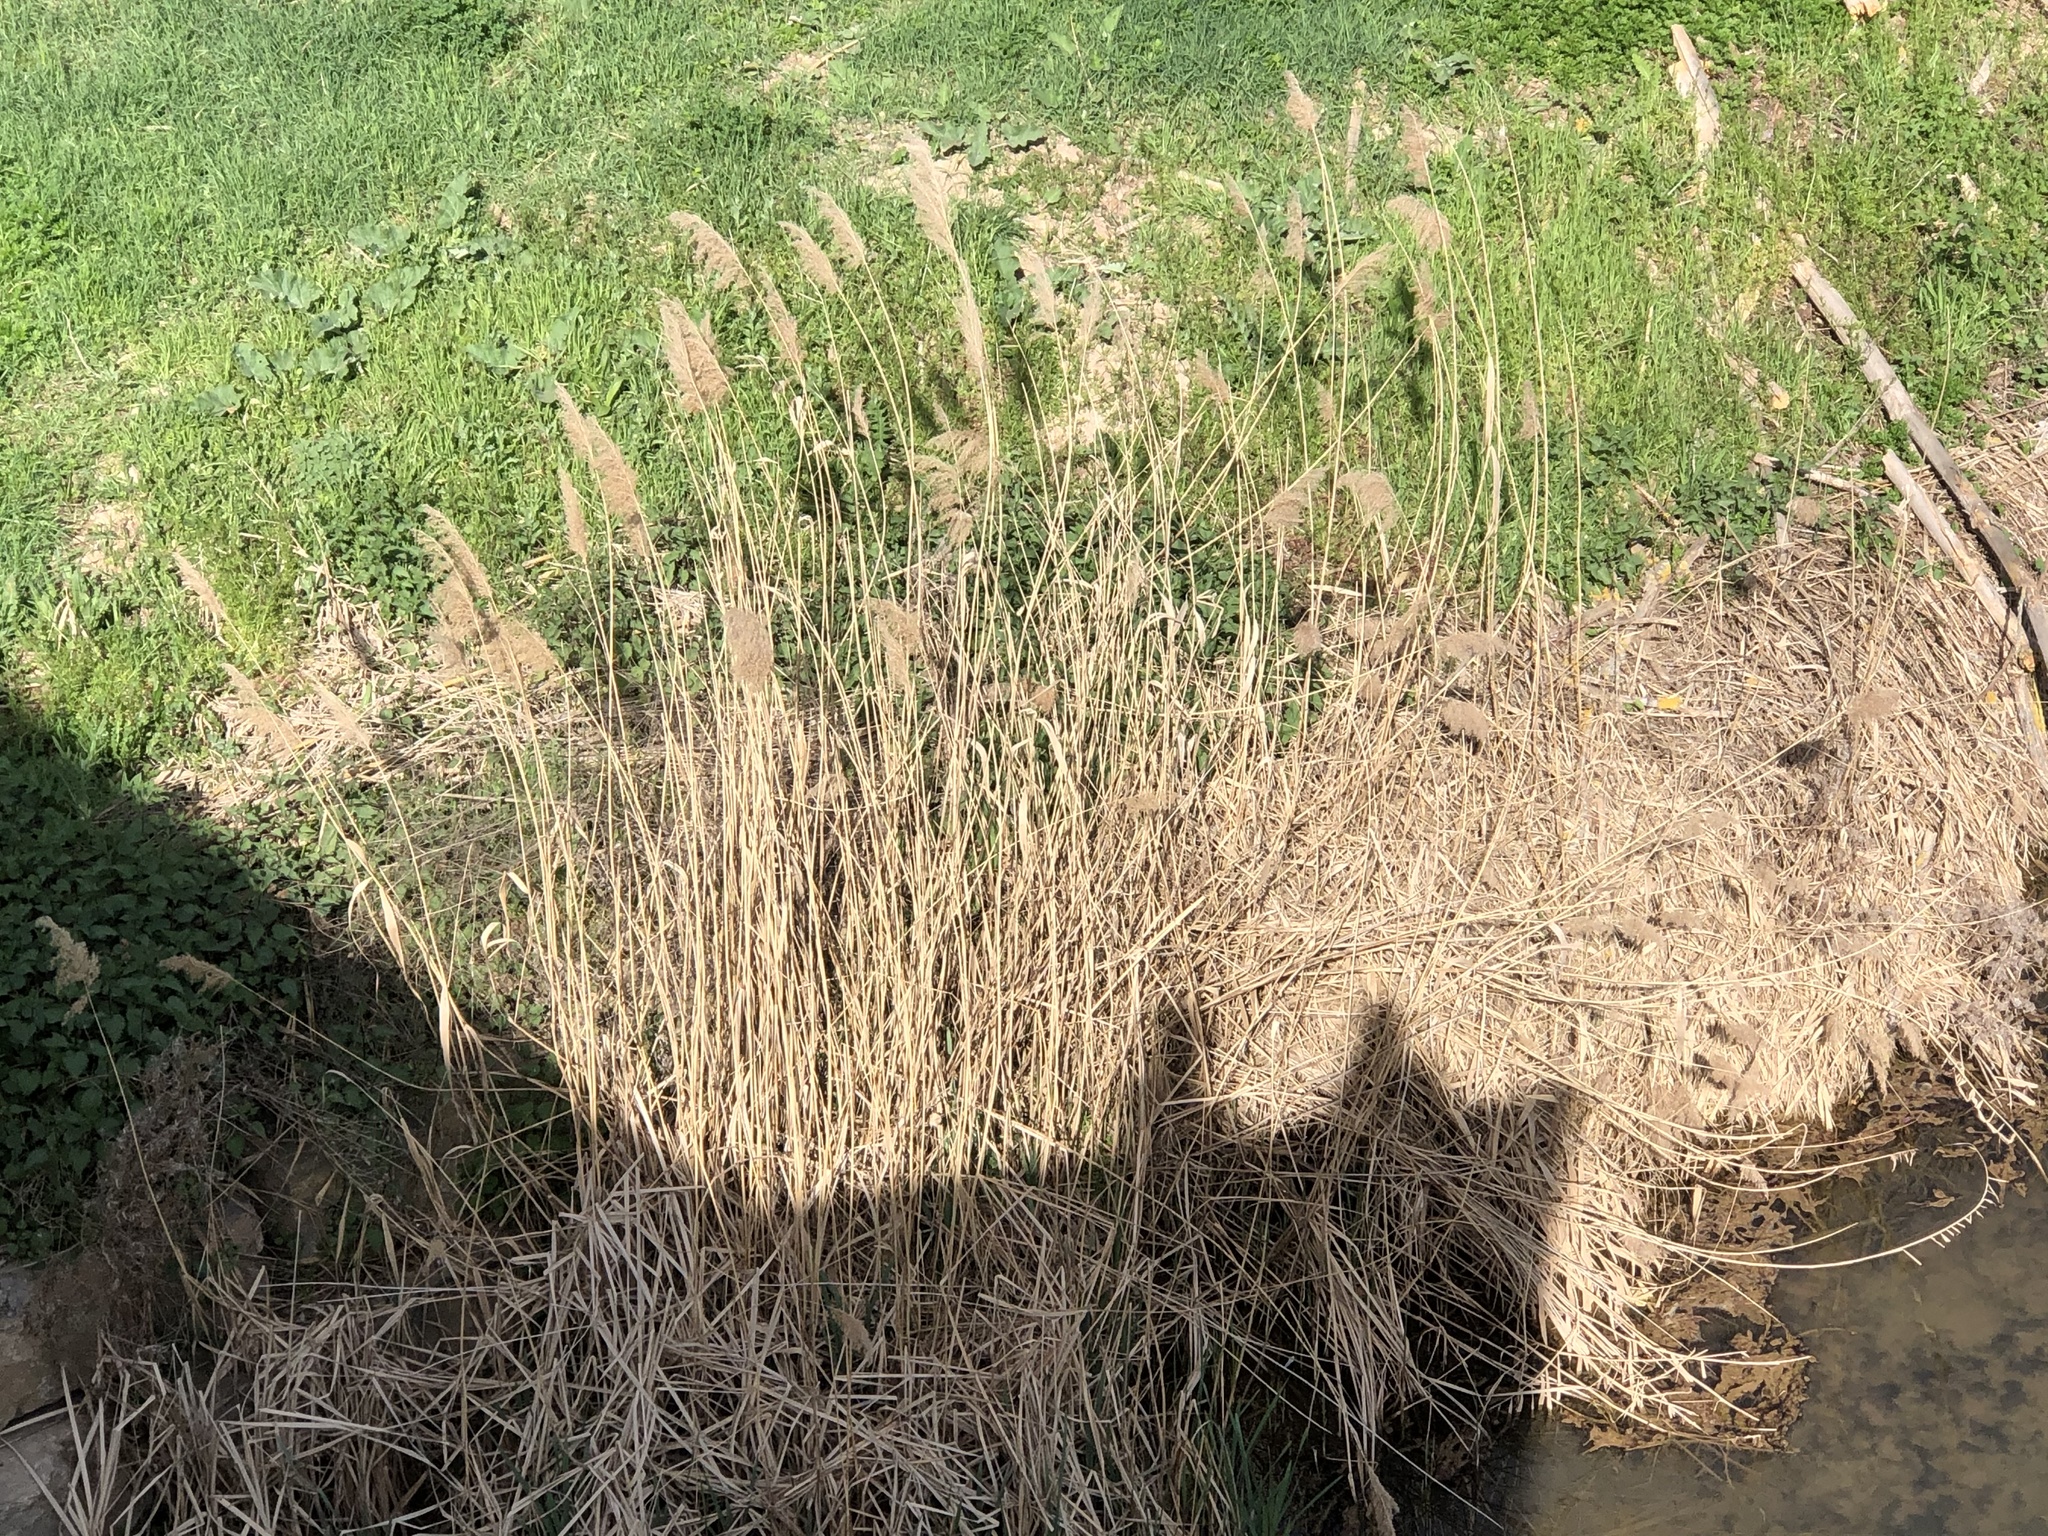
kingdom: Plantae
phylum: Tracheophyta
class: Liliopsida
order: Poales
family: Poaceae
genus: Phragmites
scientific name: Phragmites australis
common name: Common reed
